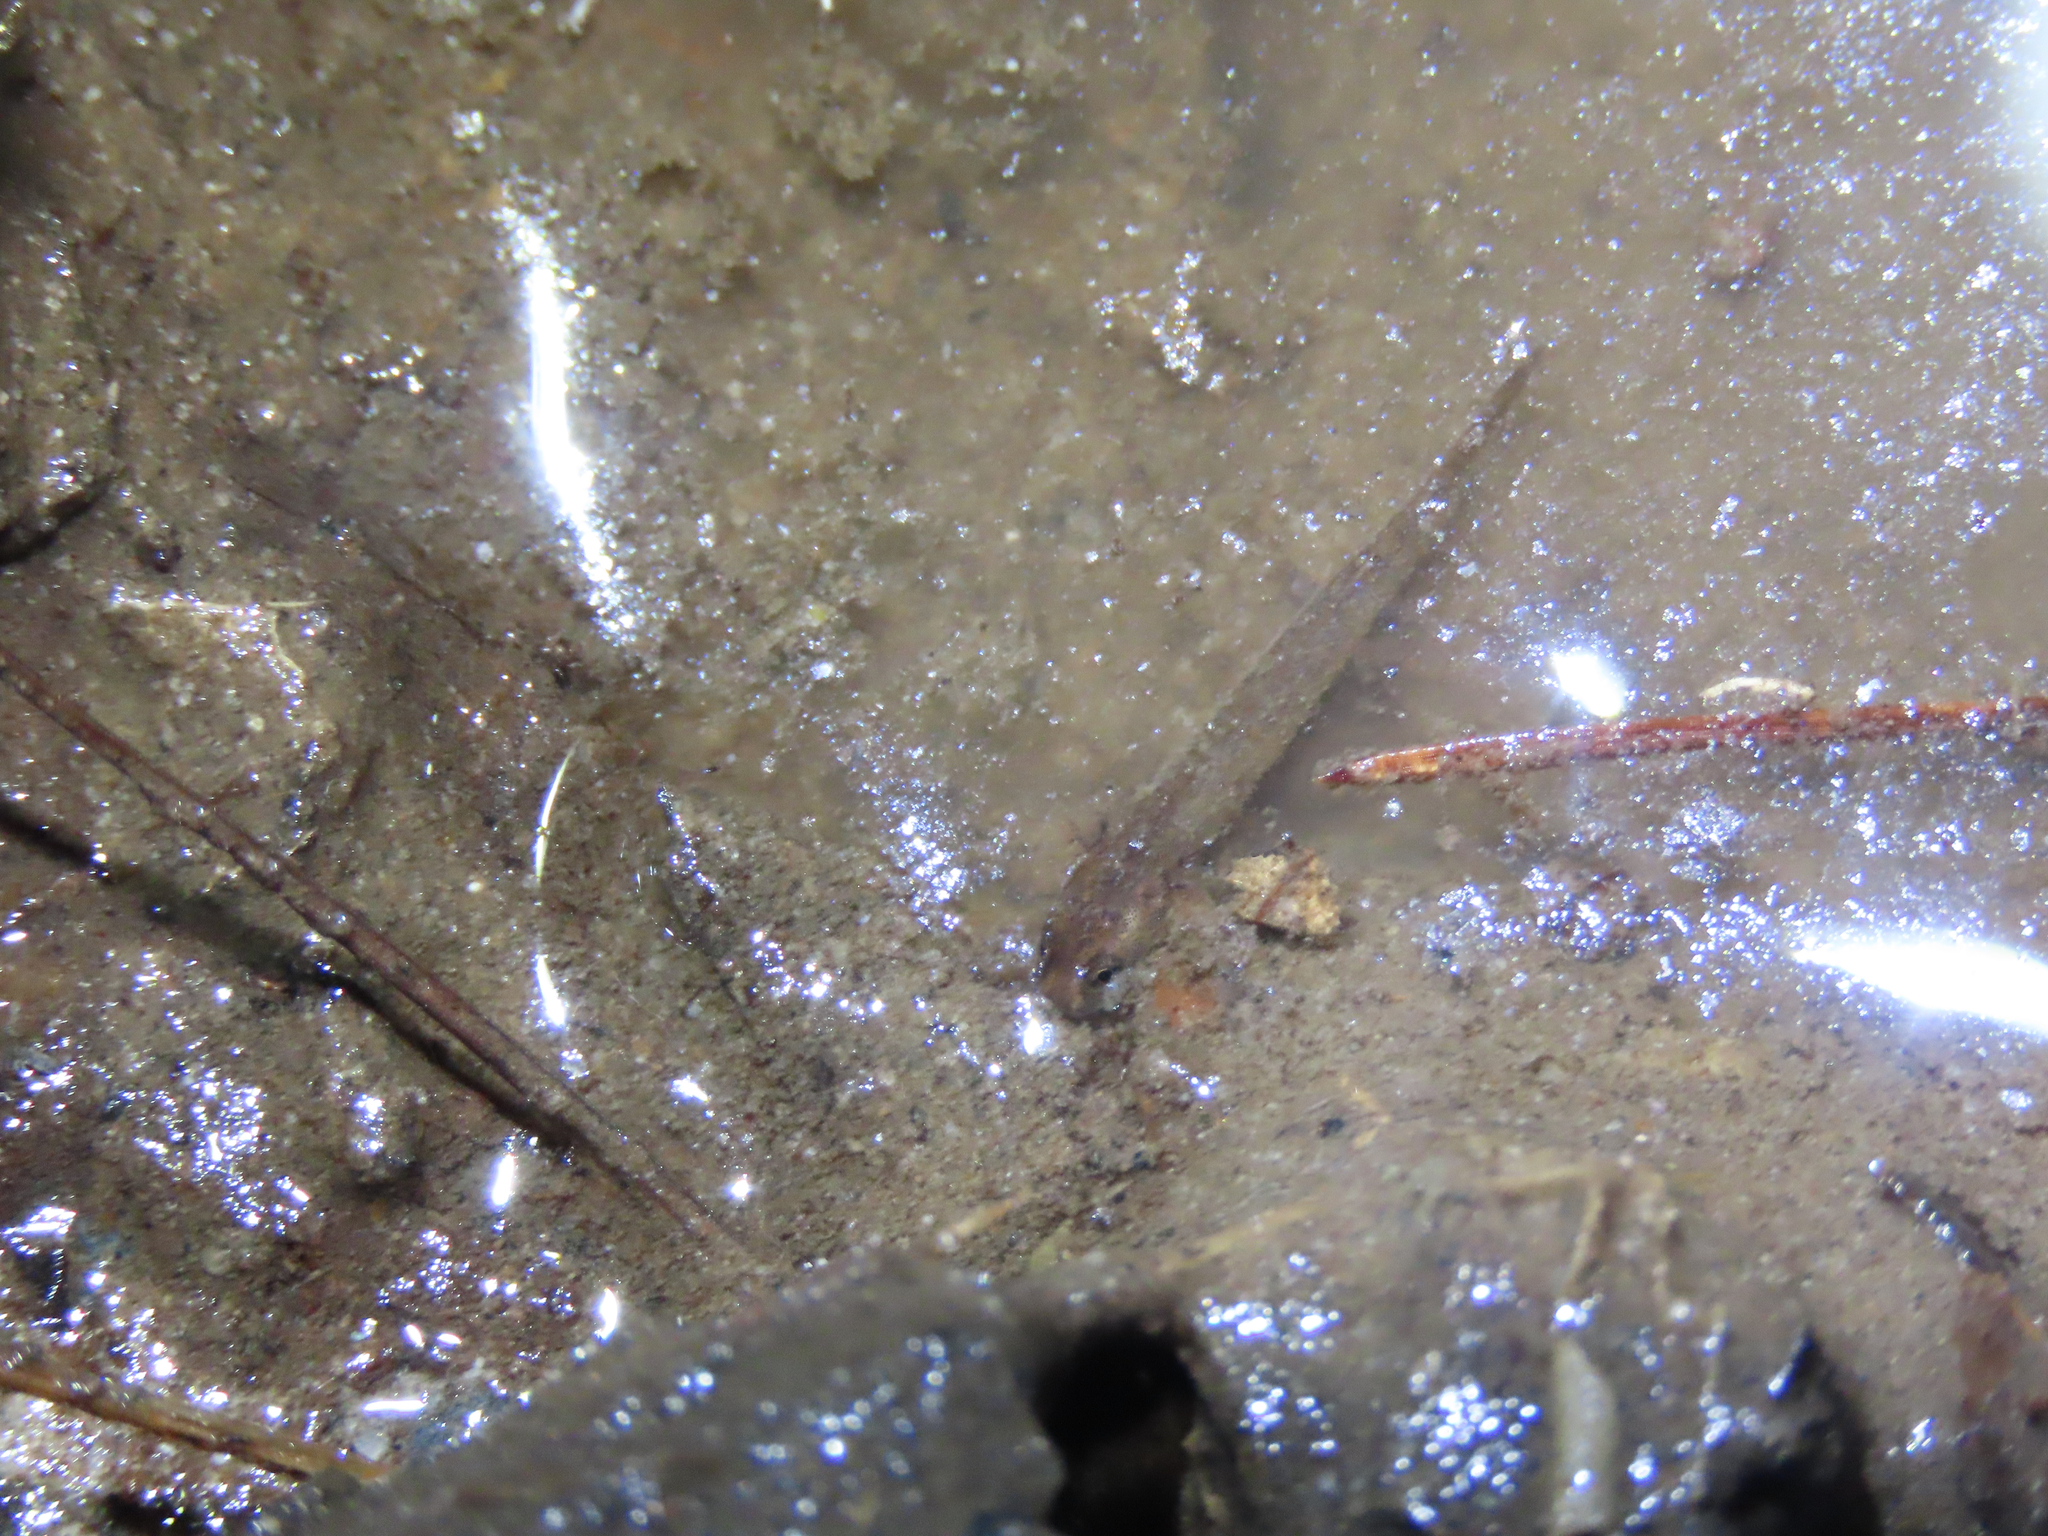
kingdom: Animalia
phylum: Chordata
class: Amphibia
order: Caudata
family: Plethodontidae
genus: Desmognathus
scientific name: Desmognathus fuscus
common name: Northern dusky salamander
